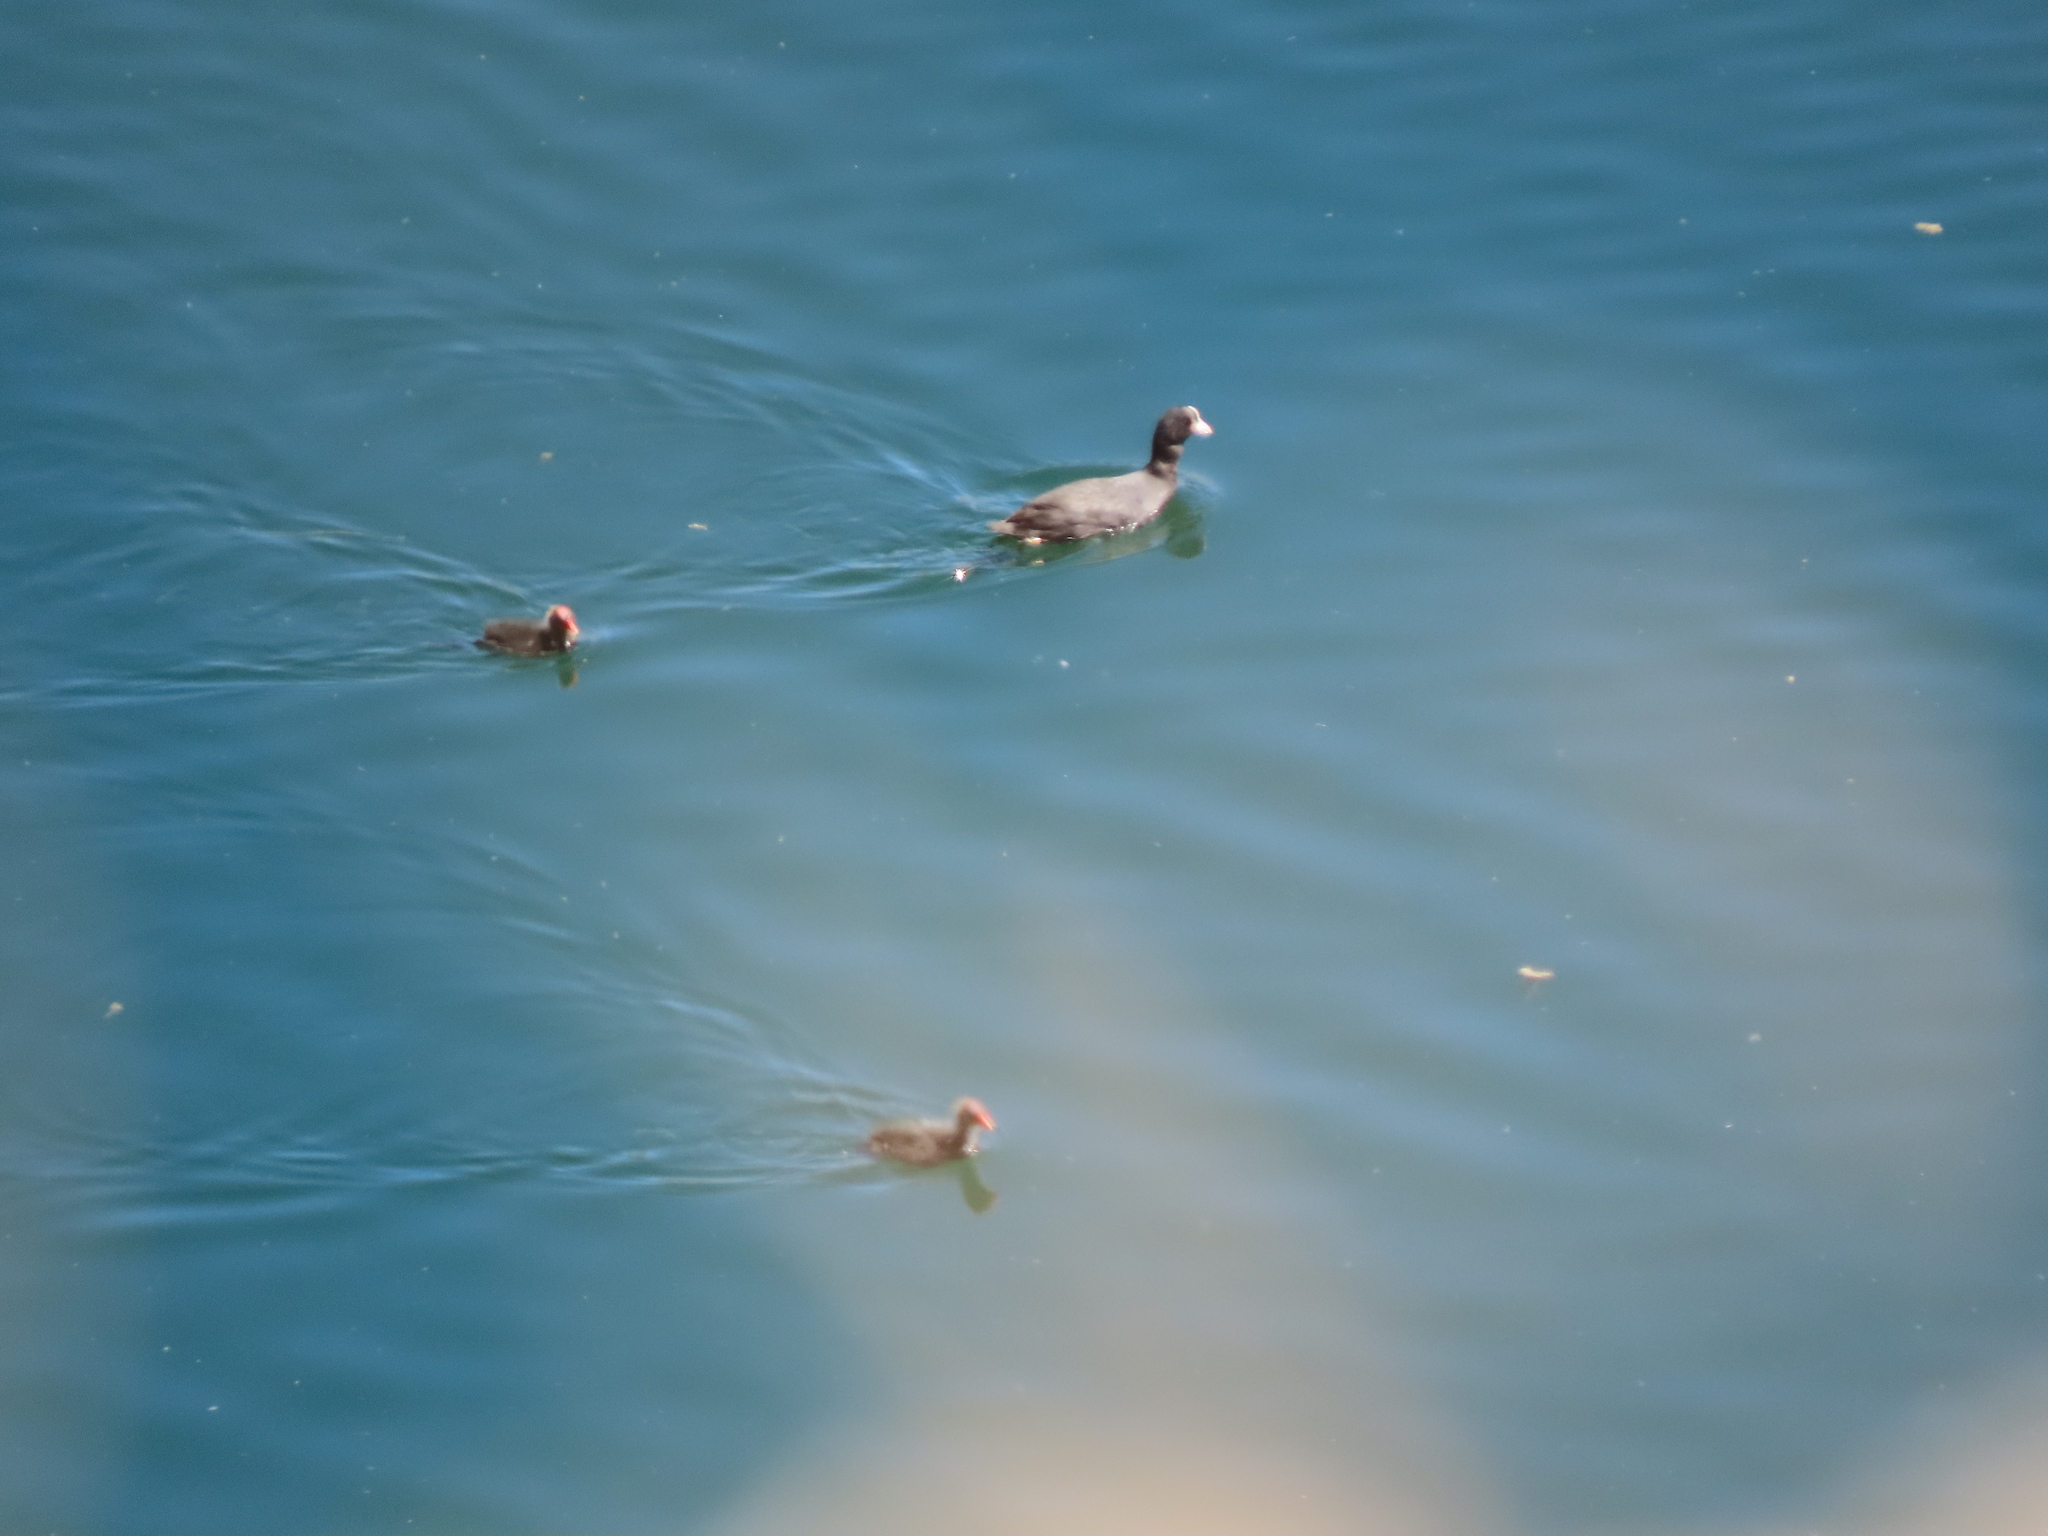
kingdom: Animalia
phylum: Chordata
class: Aves
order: Gruiformes
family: Rallidae
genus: Fulica
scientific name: Fulica atra
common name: Eurasian coot
